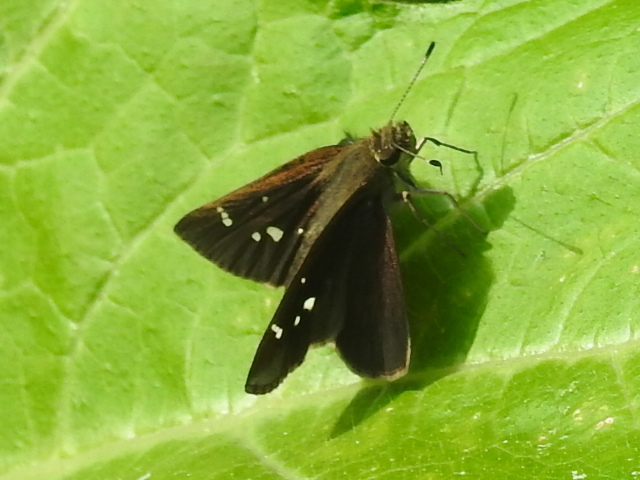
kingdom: Animalia
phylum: Arthropoda
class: Insecta
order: Lepidoptera
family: Hesperiidae
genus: Lerema
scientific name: Lerema accius
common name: Clouded skipper
